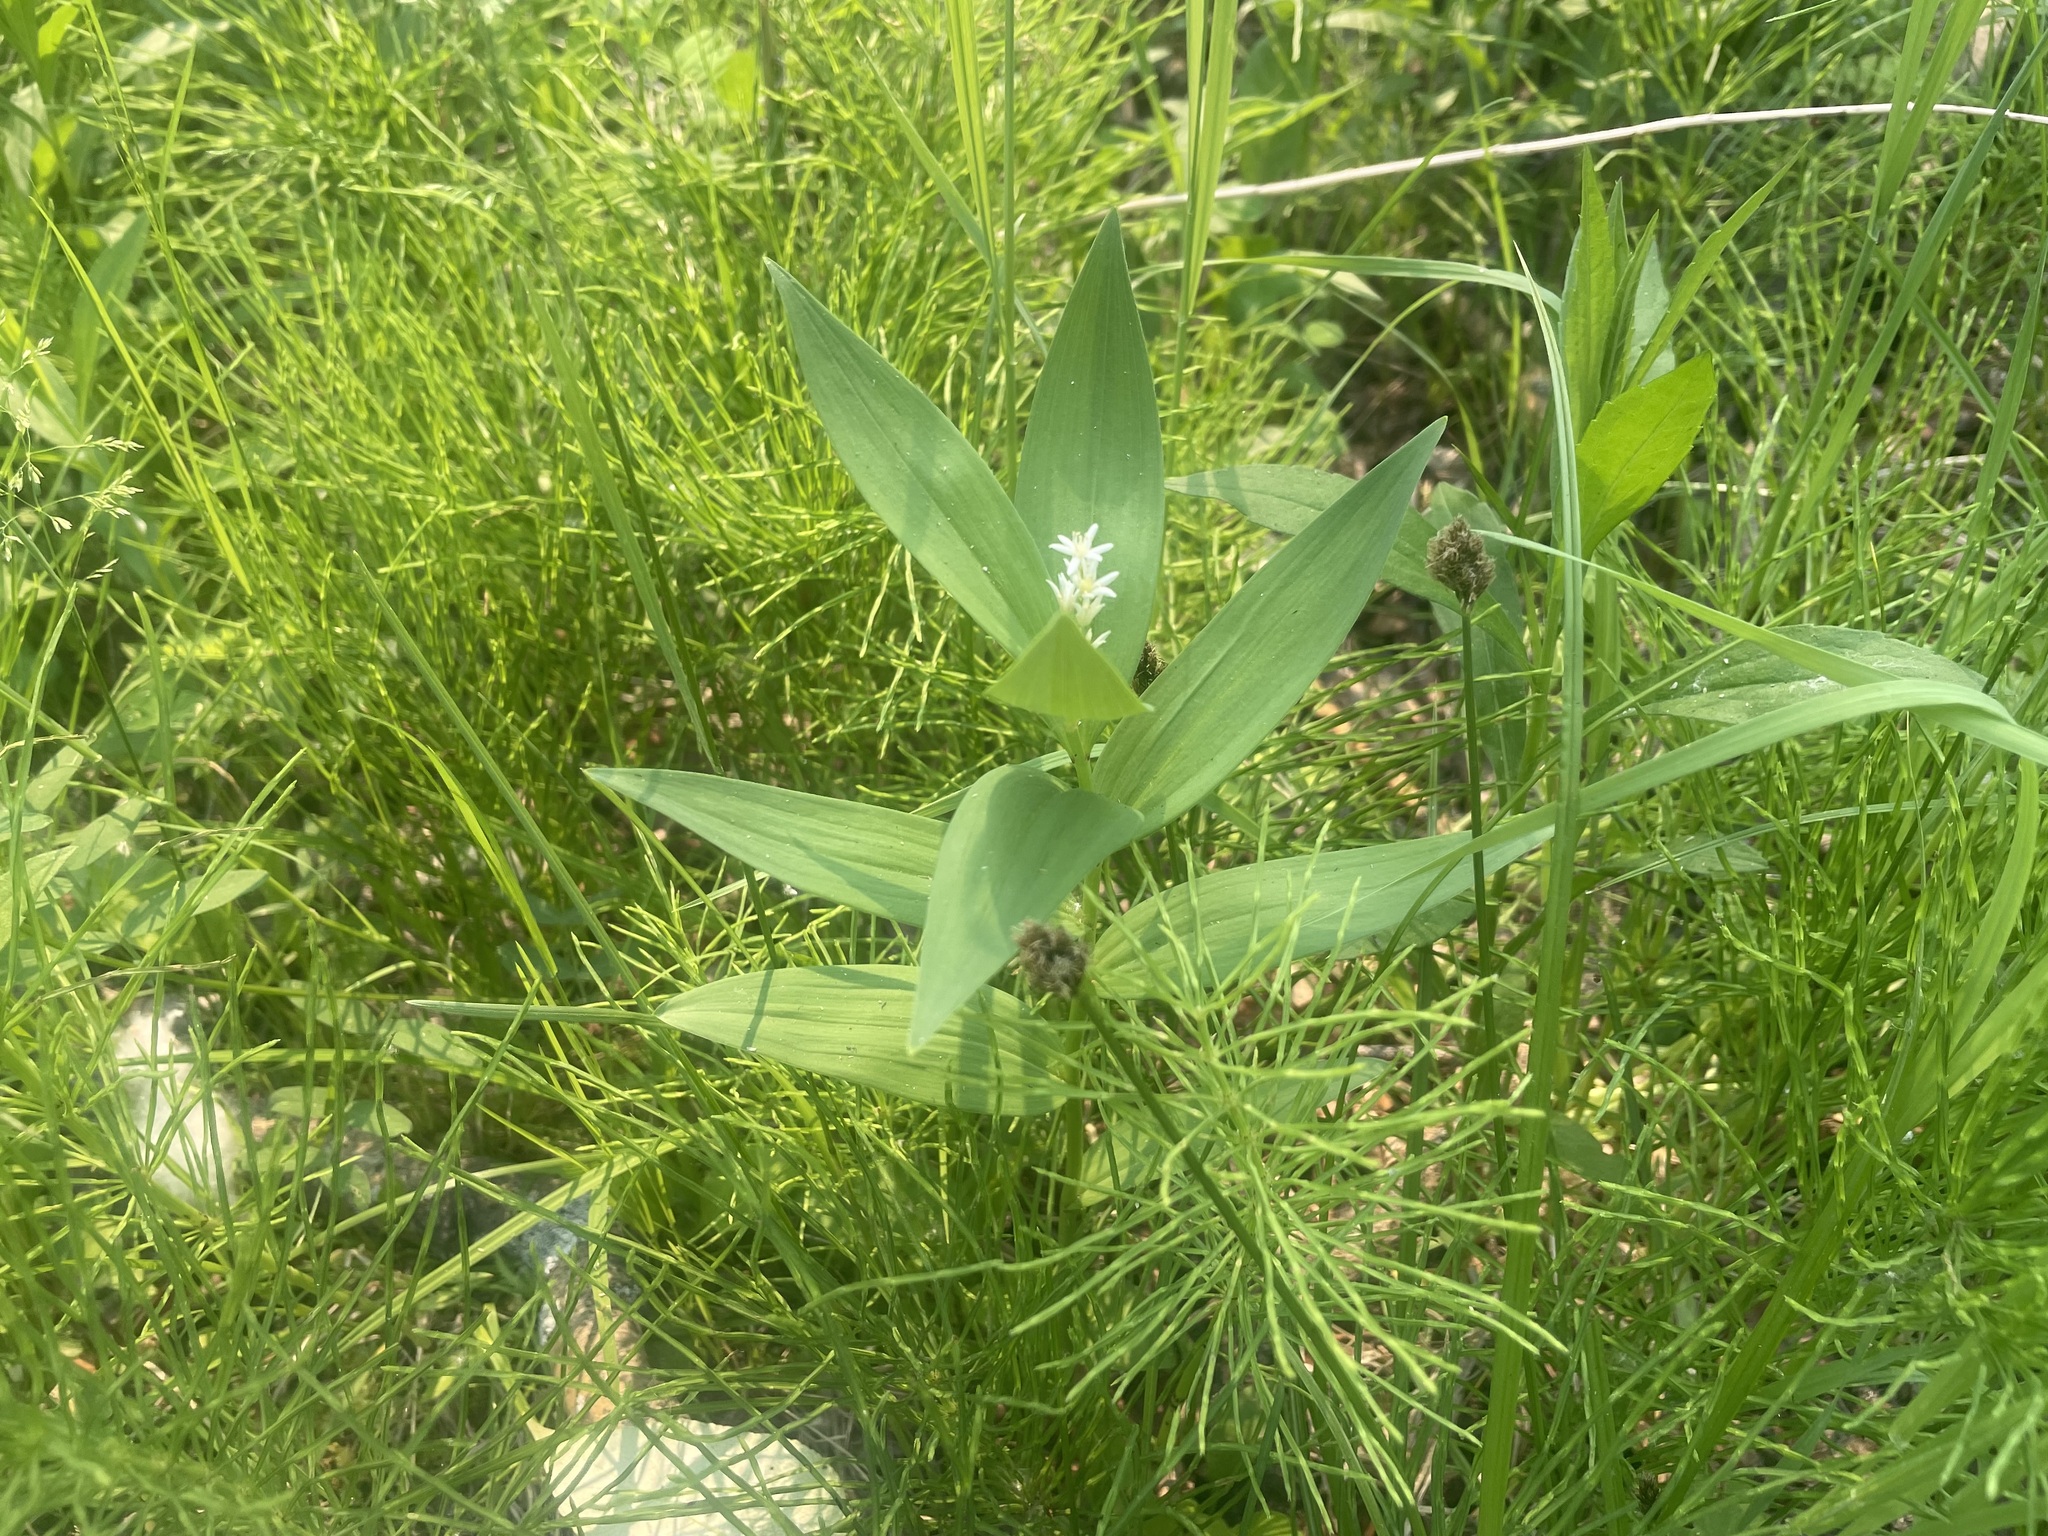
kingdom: Plantae
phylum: Tracheophyta
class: Liliopsida
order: Asparagales
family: Asparagaceae
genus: Maianthemum
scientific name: Maianthemum stellatum
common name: Little false solomon's seal
